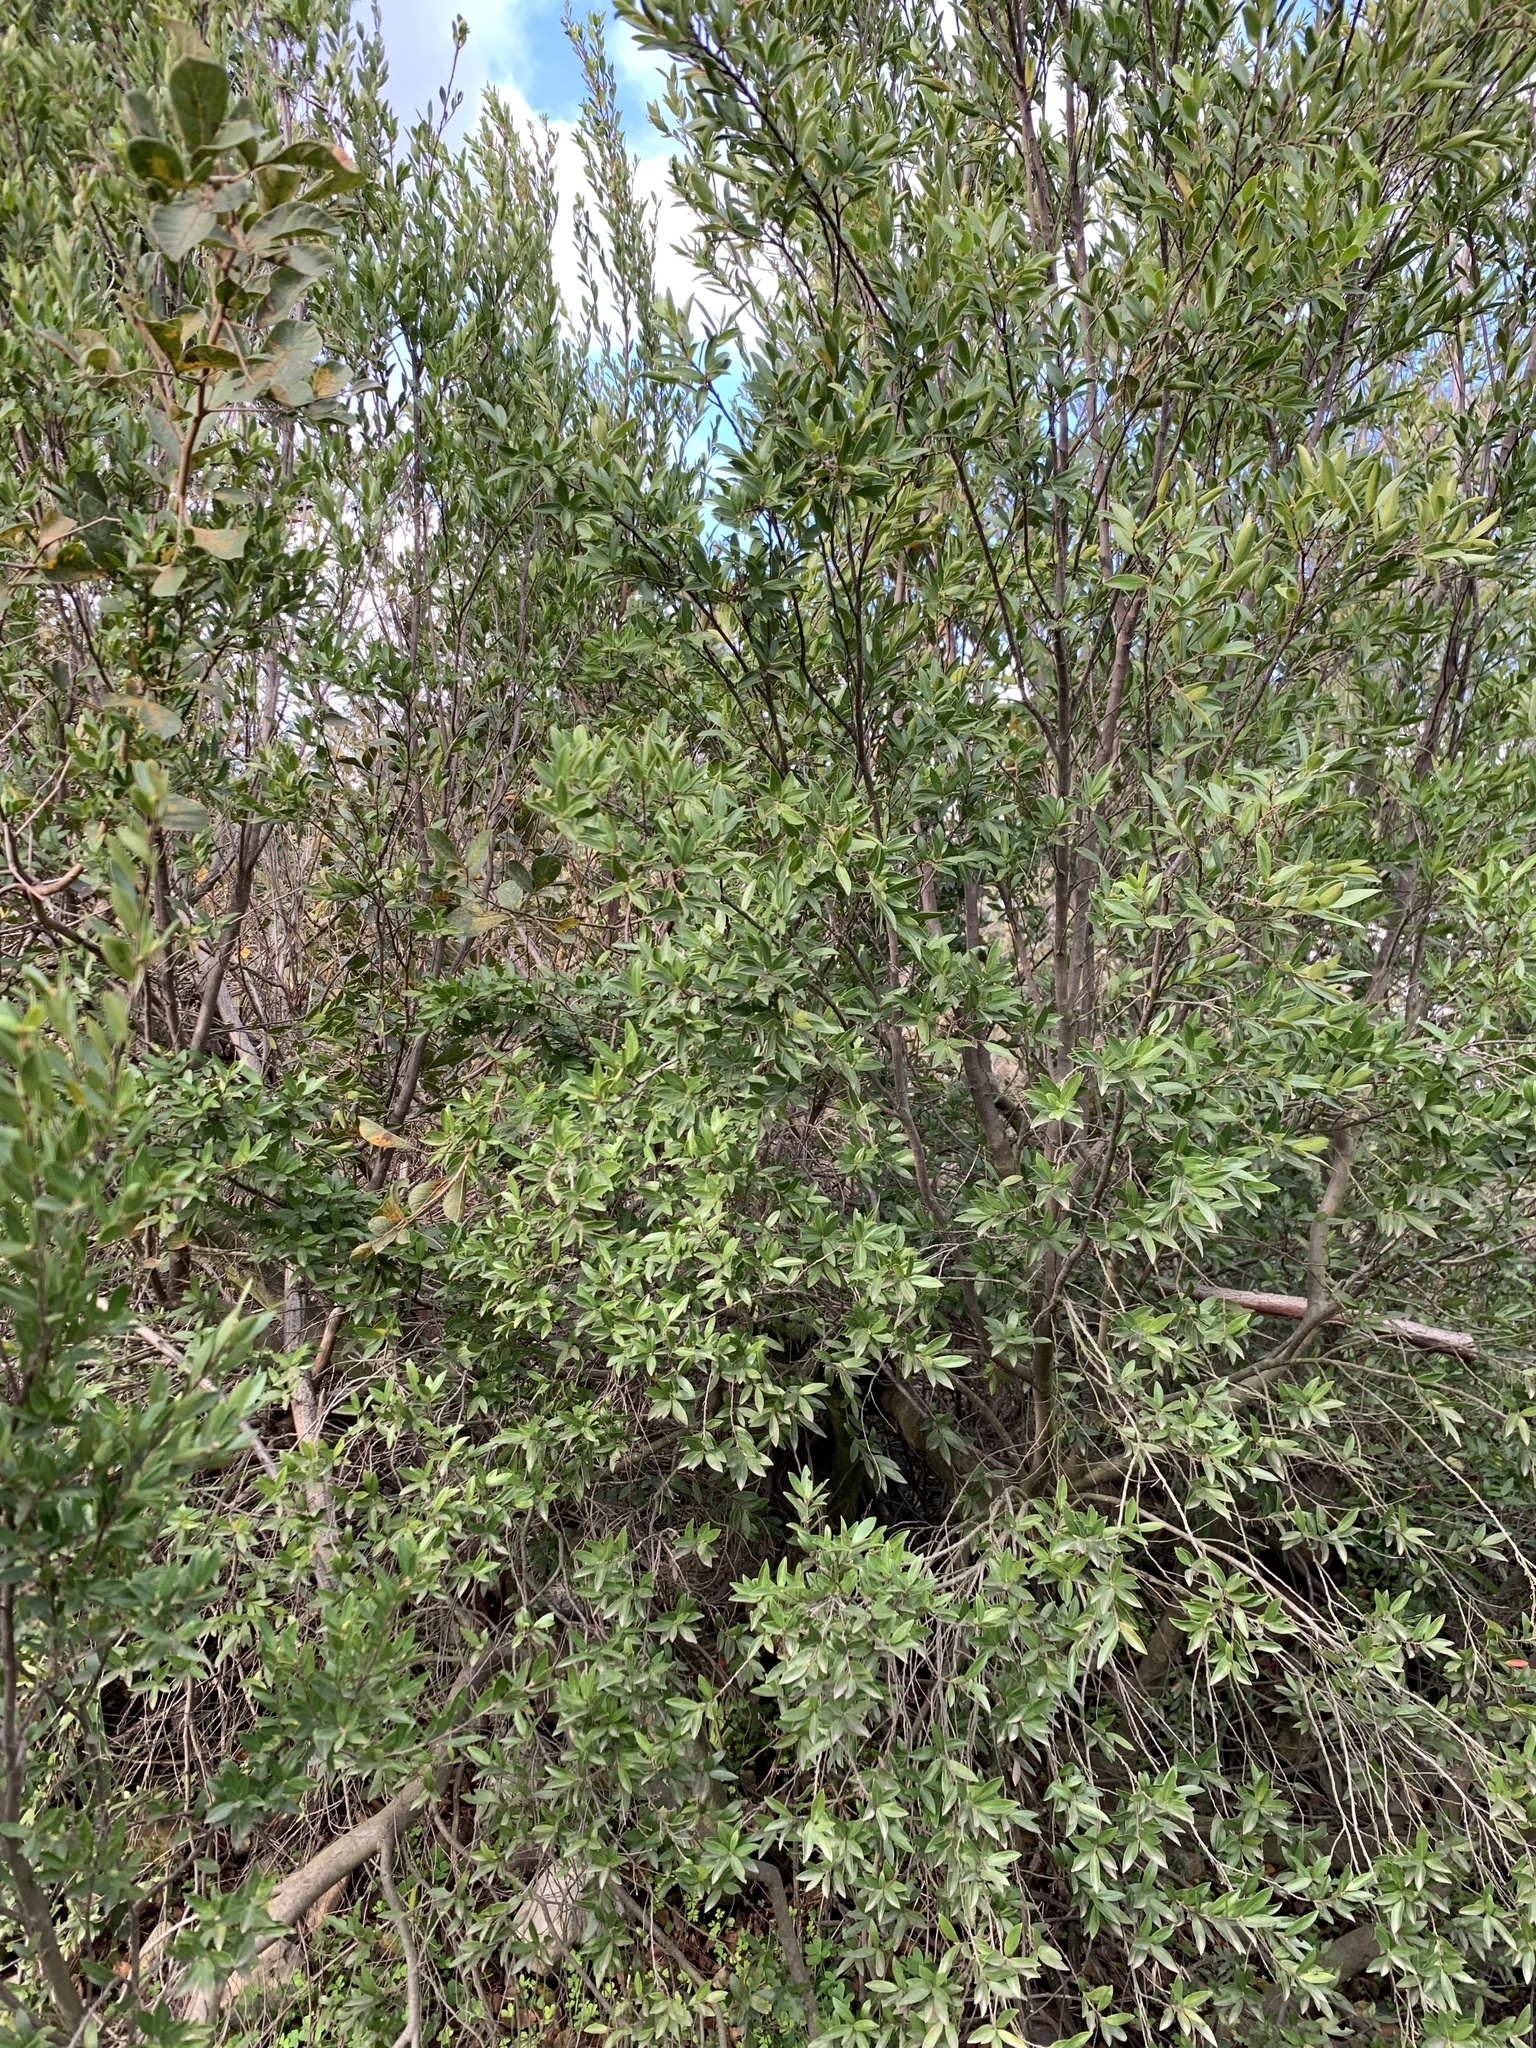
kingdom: Plantae
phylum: Tracheophyta
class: Magnoliopsida
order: Ericales
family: Ebenaceae
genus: Diospyros
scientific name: Diospyros glabra
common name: Fynbos star apple
